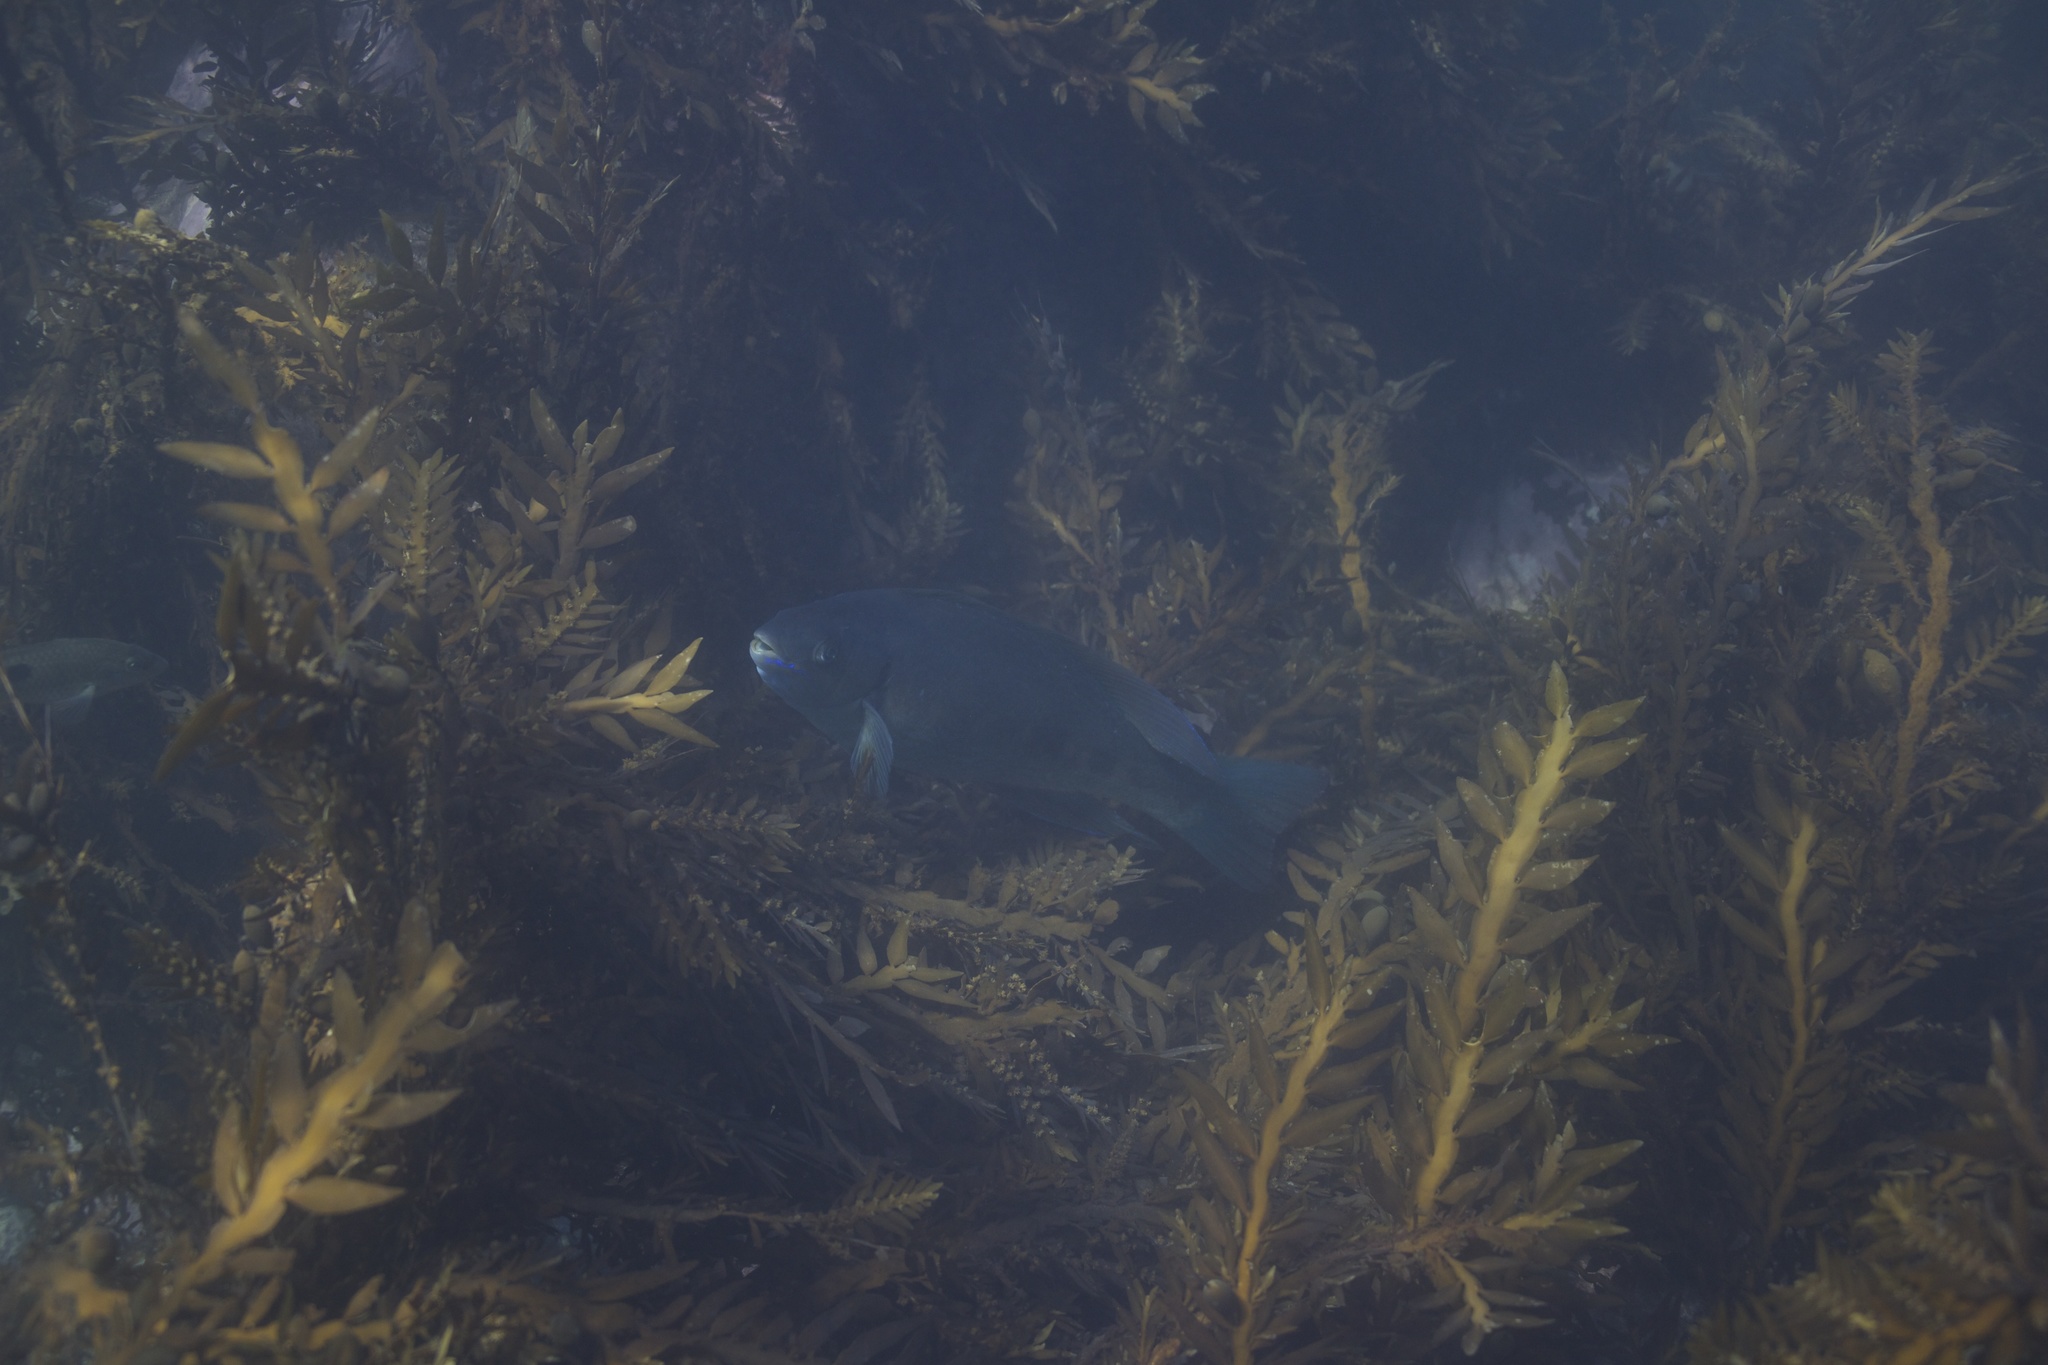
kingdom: Animalia
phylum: Chordata
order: Perciformes
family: Odacidae
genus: Odax
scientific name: Odax pullus
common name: Butterfish
